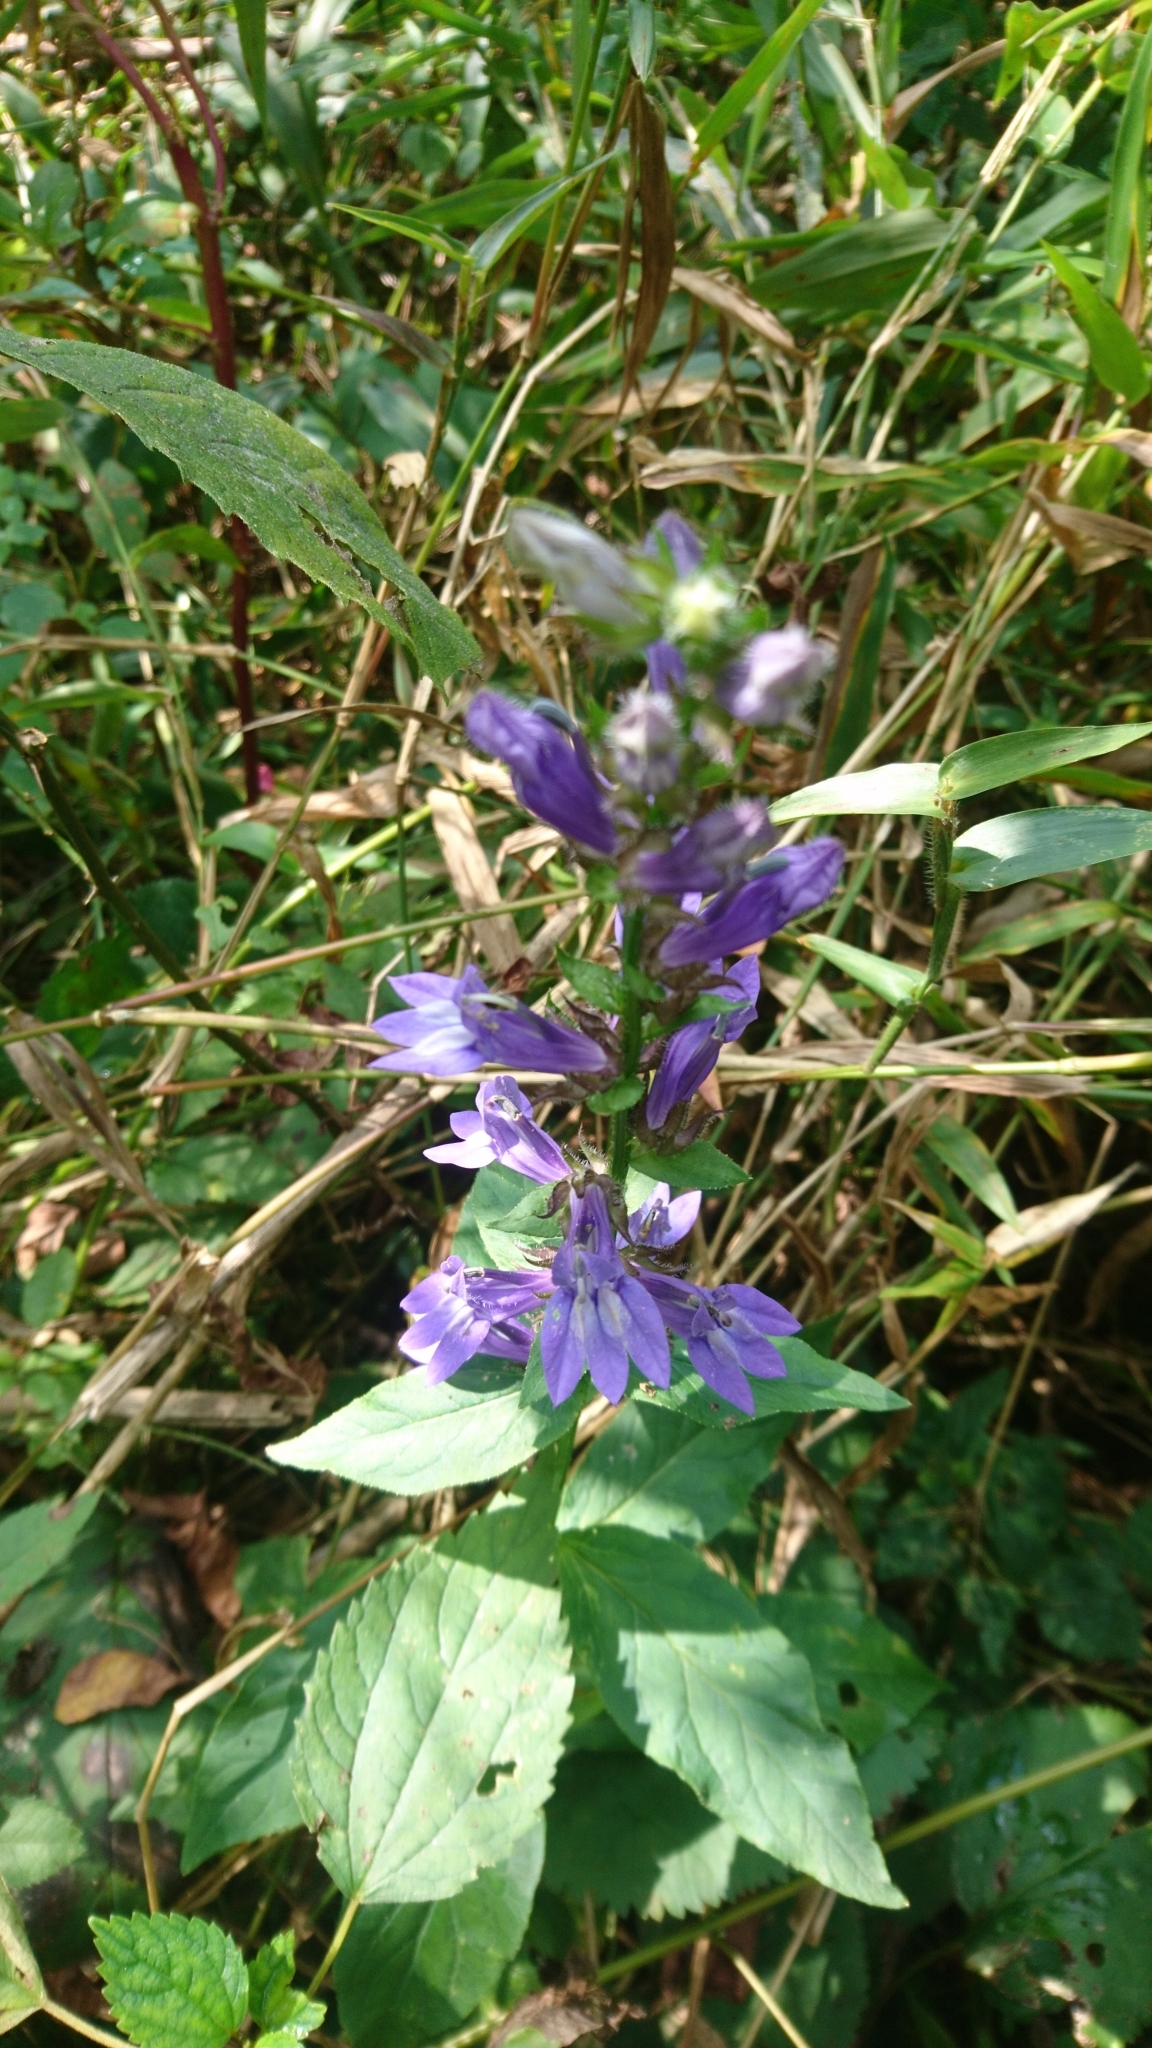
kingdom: Plantae
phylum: Tracheophyta
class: Magnoliopsida
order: Asterales
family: Campanulaceae
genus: Lobelia
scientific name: Lobelia siphilitica
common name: Great lobelia
